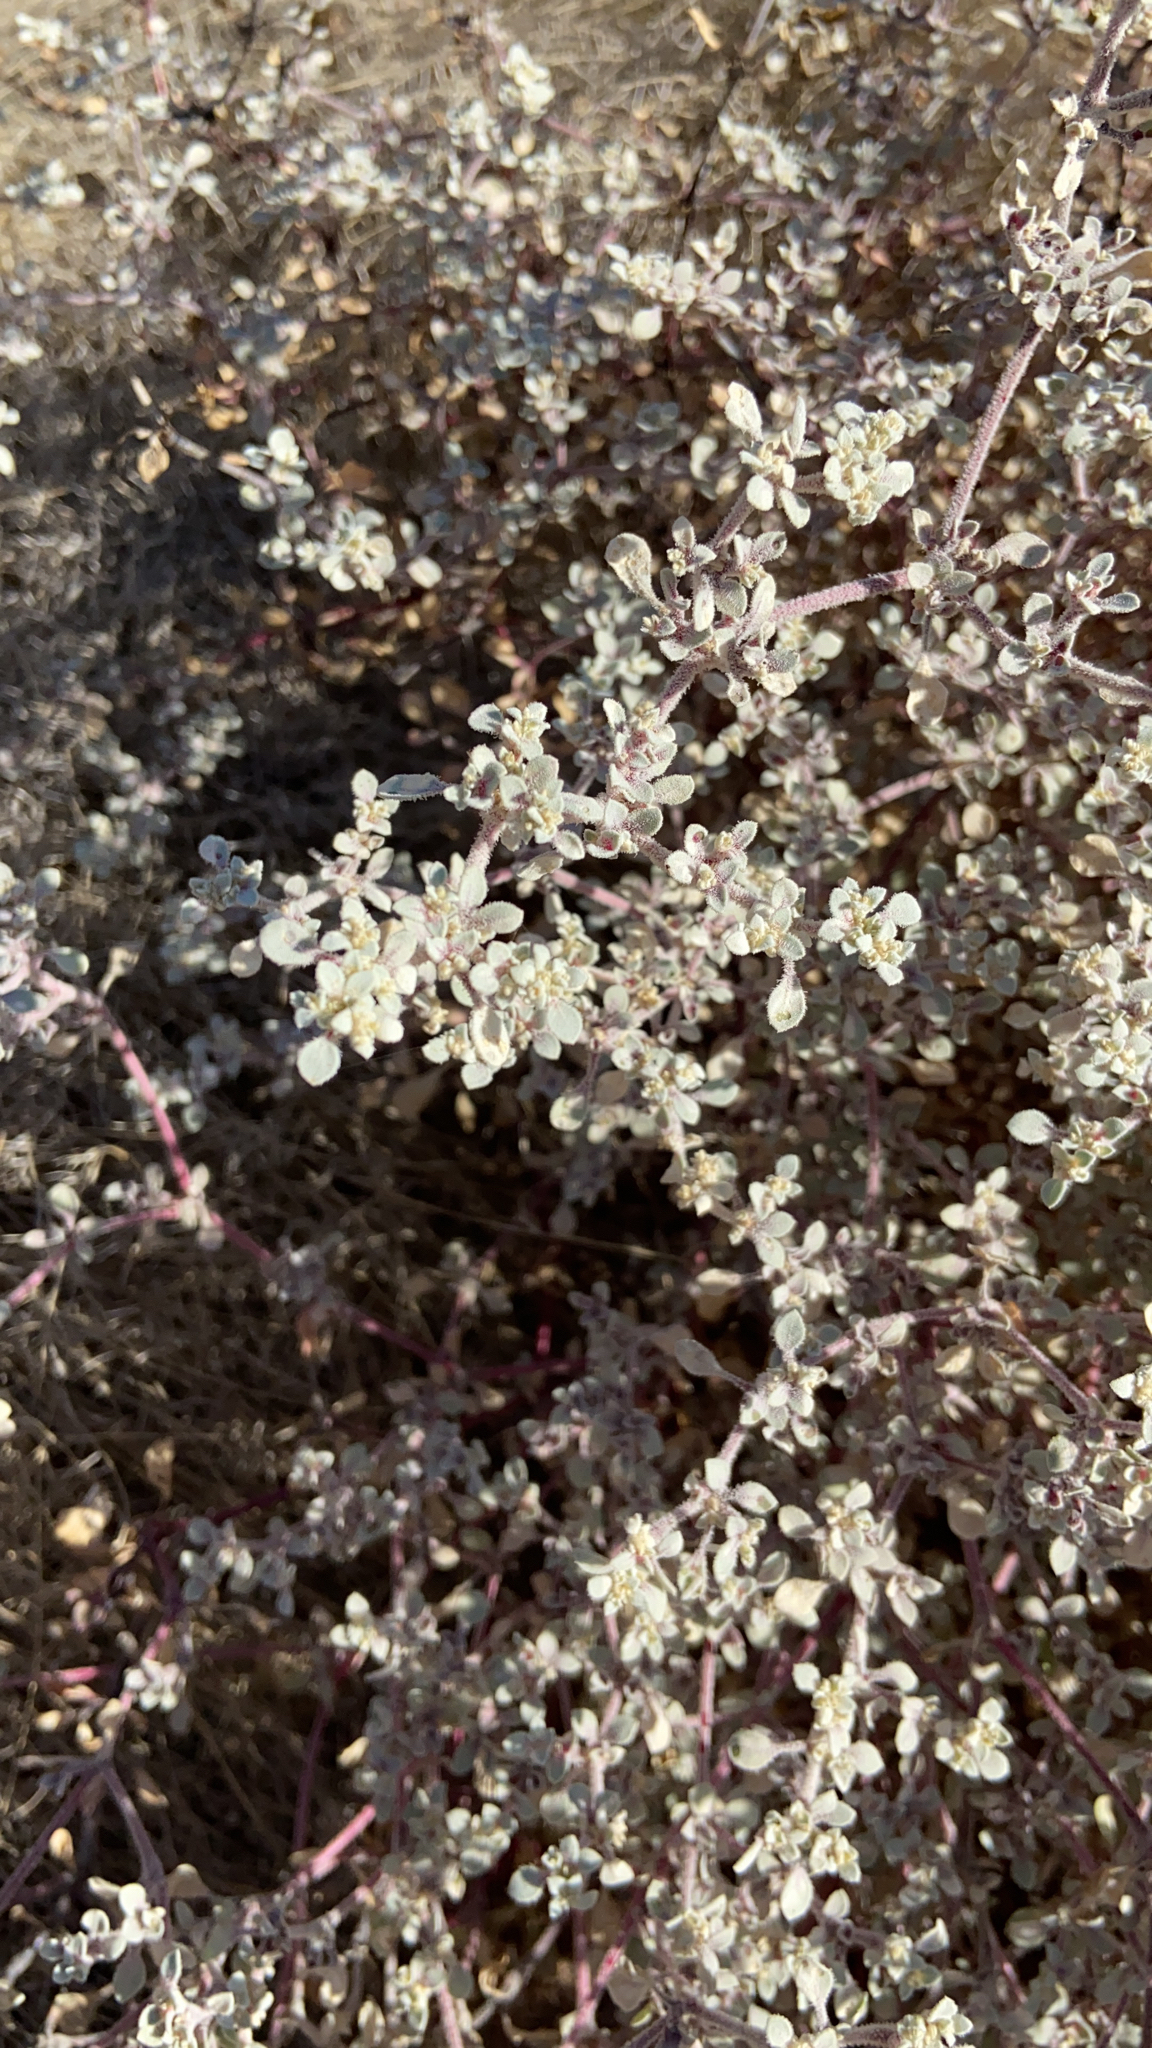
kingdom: Plantae
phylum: Tracheophyta
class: Magnoliopsida
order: Caryophyllales
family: Amaranthaceae
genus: Tidestromia
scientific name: Tidestromia lanuginosa
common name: Woolly tidestromia
